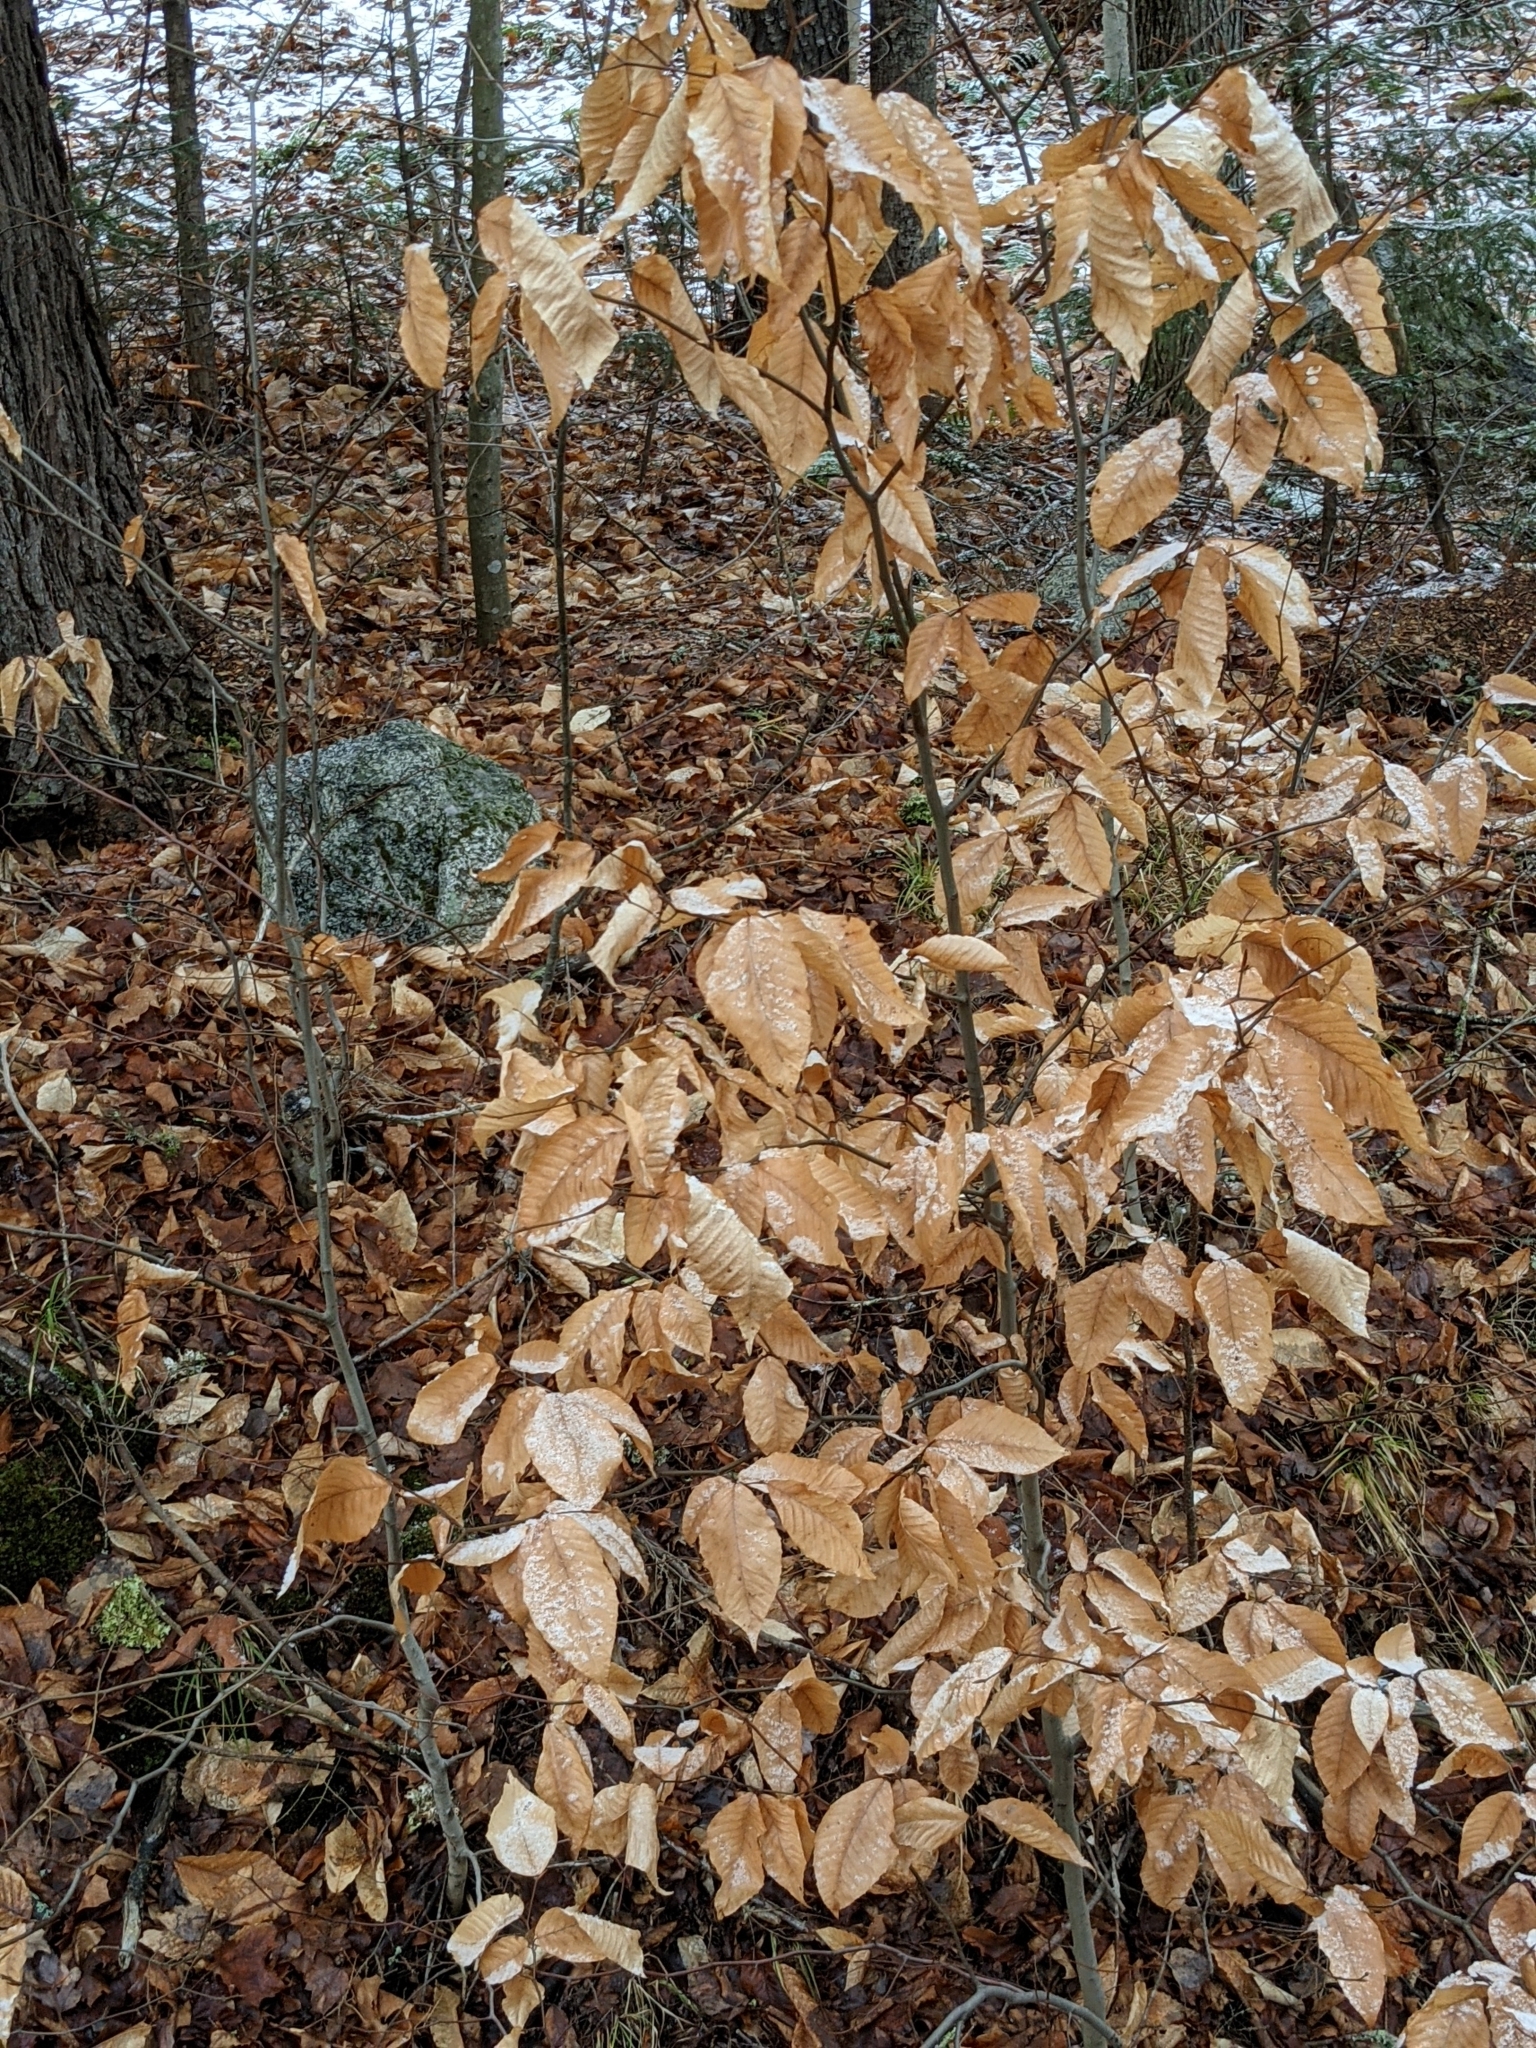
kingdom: Plantae
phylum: Tracheophyta
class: Magnoliopsida
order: Fagales
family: Fagaceae
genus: Fagus
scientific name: Fagus grandifolia
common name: American beech
